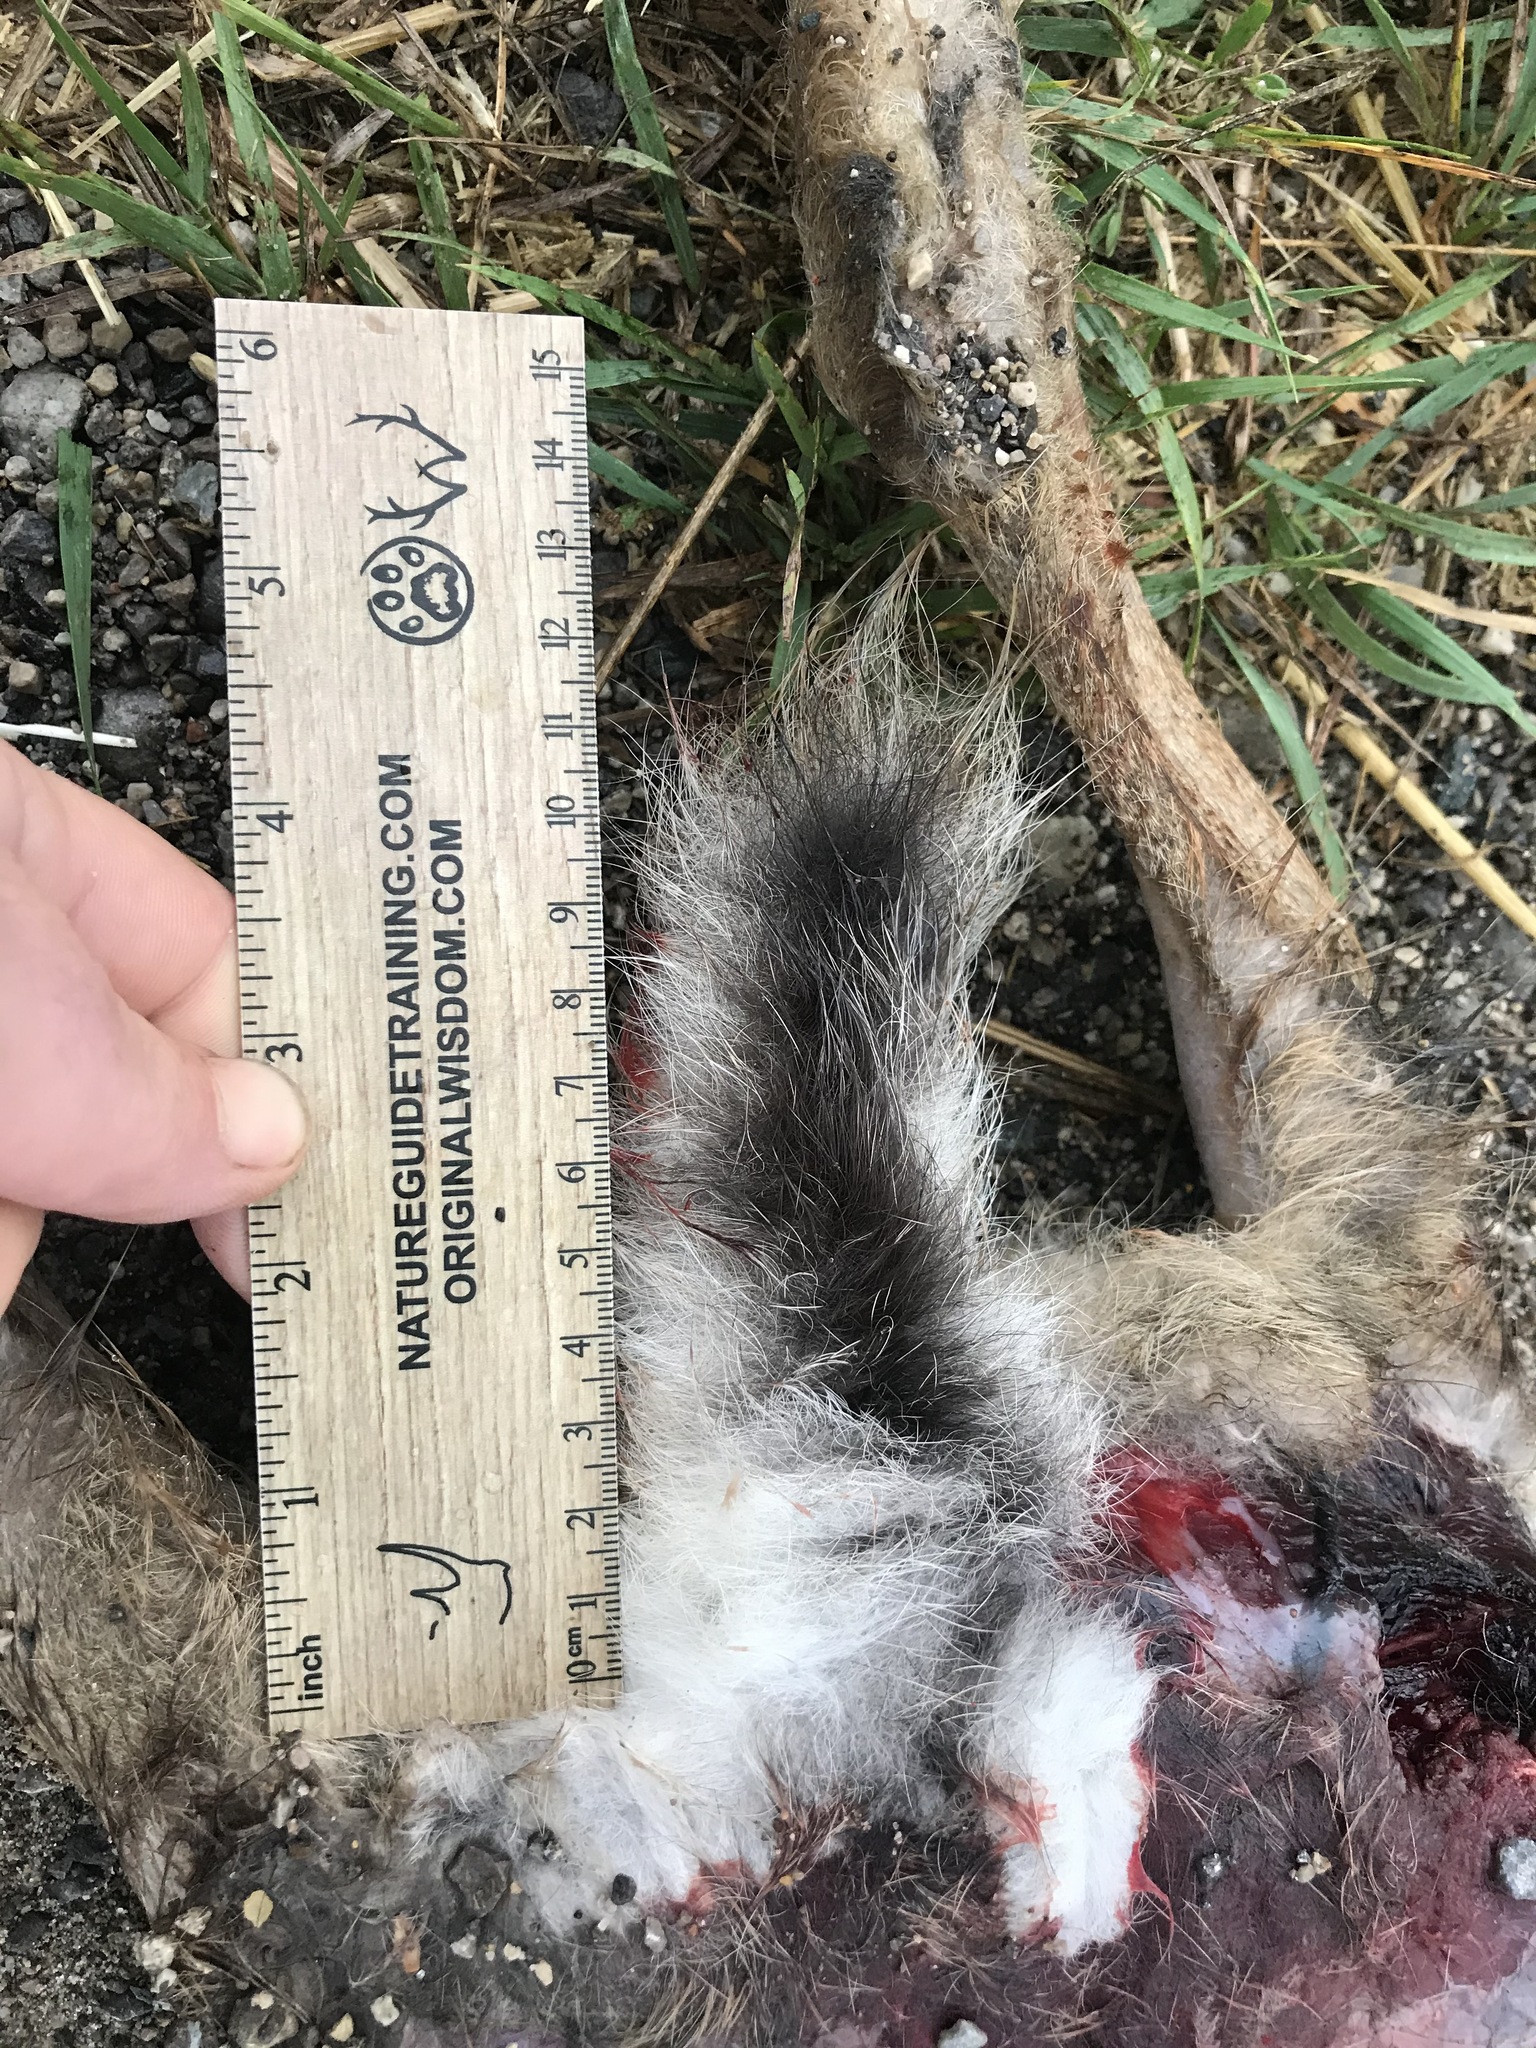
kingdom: Animalia
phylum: Chordata
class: Mammalia
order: Lagomorpha
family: Leporidae
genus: Lepus
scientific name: Lepus europaeus
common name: European hare
